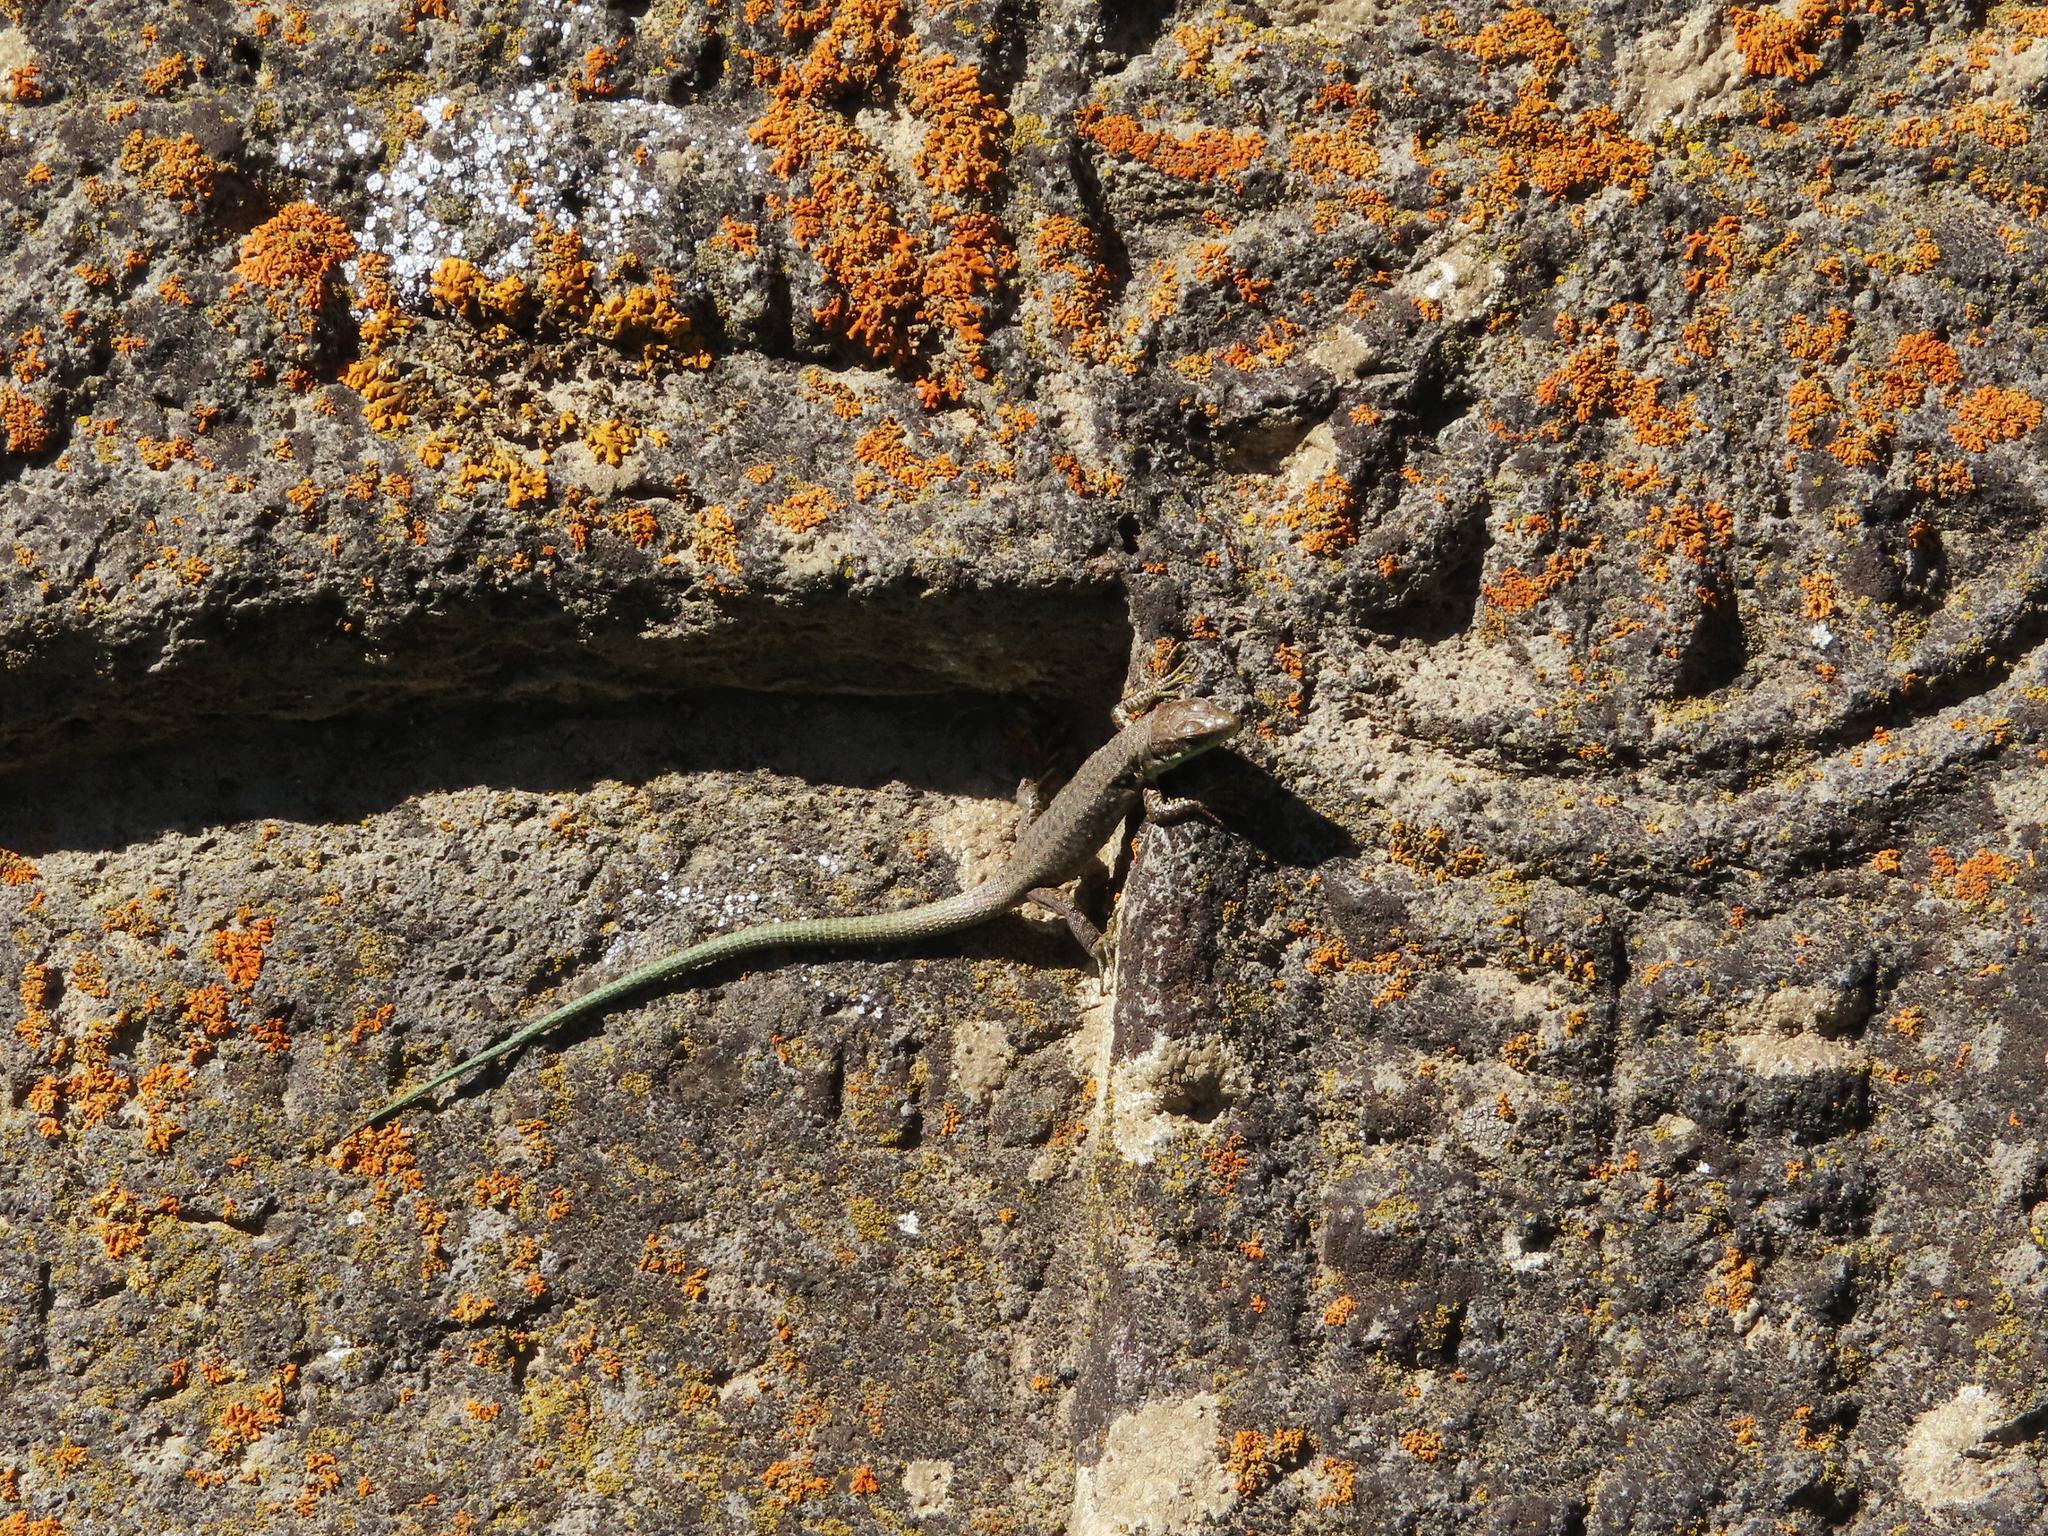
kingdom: Animalia
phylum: Chordata
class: Squamata
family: Lacertidae
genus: Darevskia
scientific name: Darevskia raddei
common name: Radde's lizard
